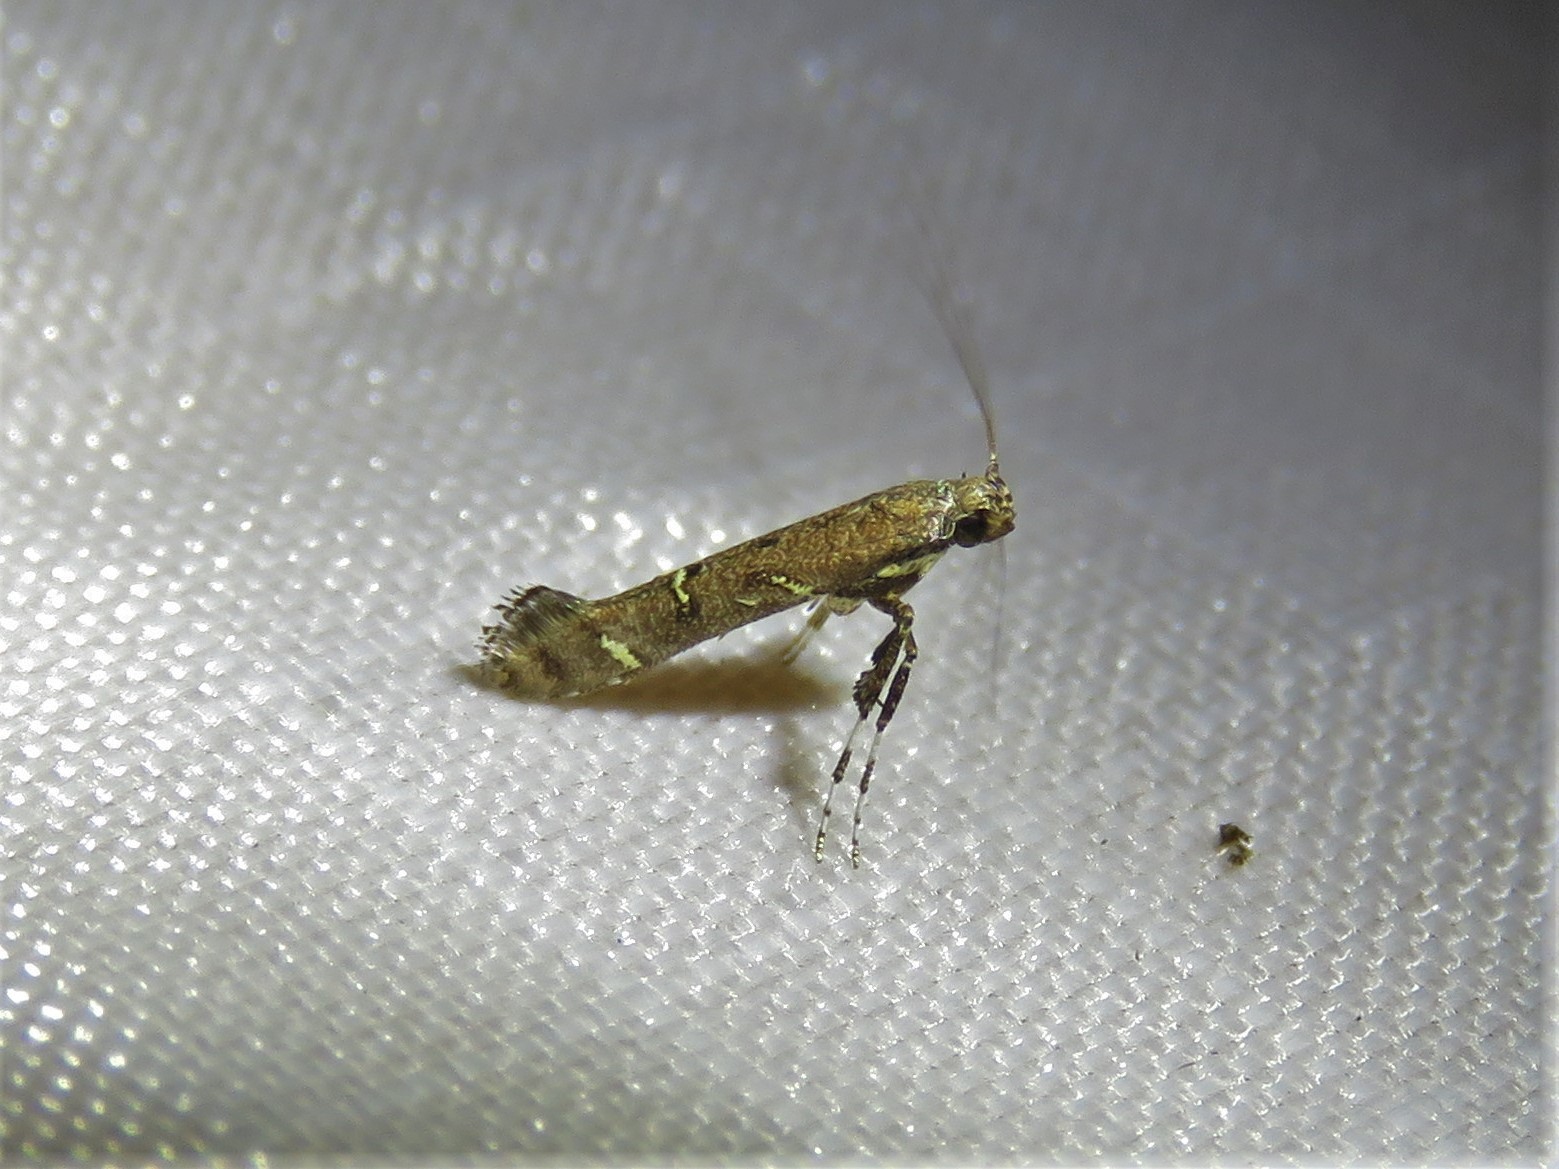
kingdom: Animalia
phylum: Arthropoda
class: Insecta
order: Lepidoptera
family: Gracillariidae
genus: Caloptilia
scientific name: Caloptilia triadicae
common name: Tallow leaf roller
